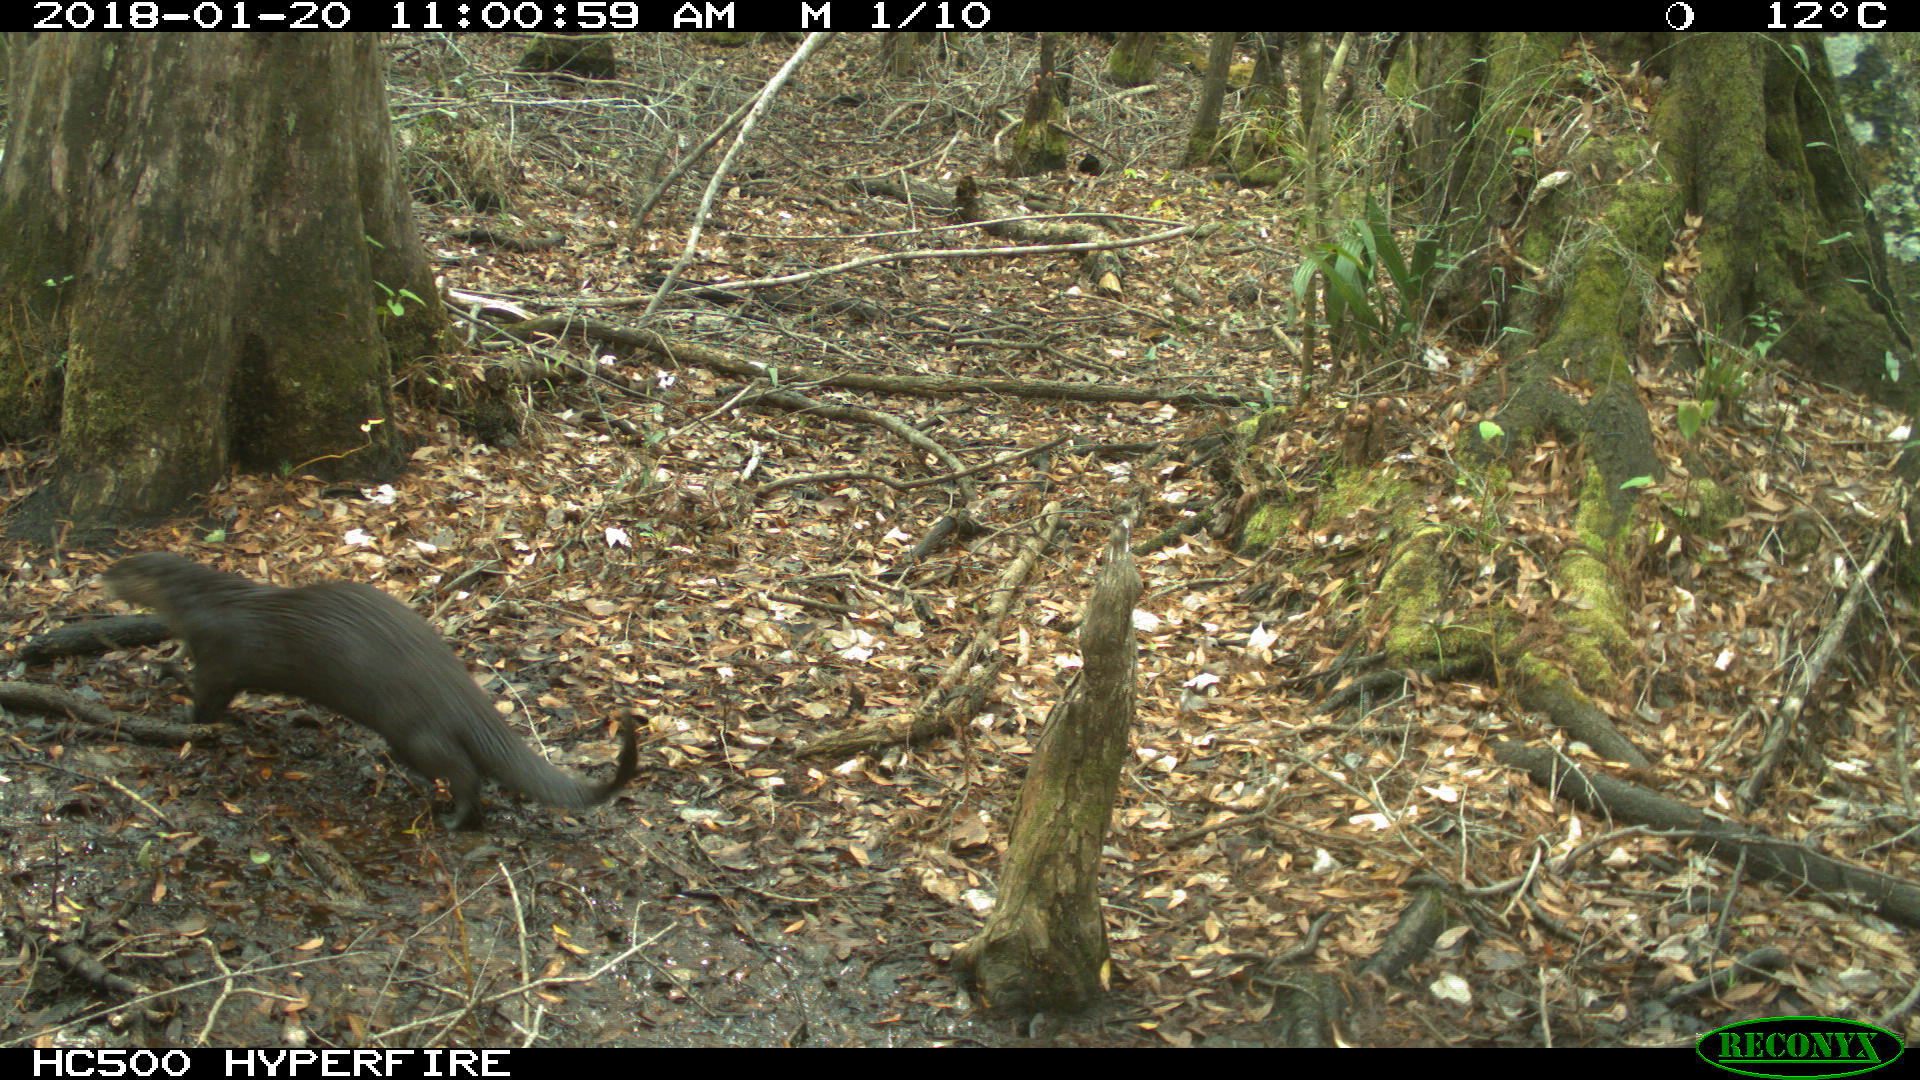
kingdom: Animalia
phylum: Chordata
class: Mammalia
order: Carnivora
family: Mustelidae
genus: Lontra
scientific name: Lontra canadensis
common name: North american river otter
